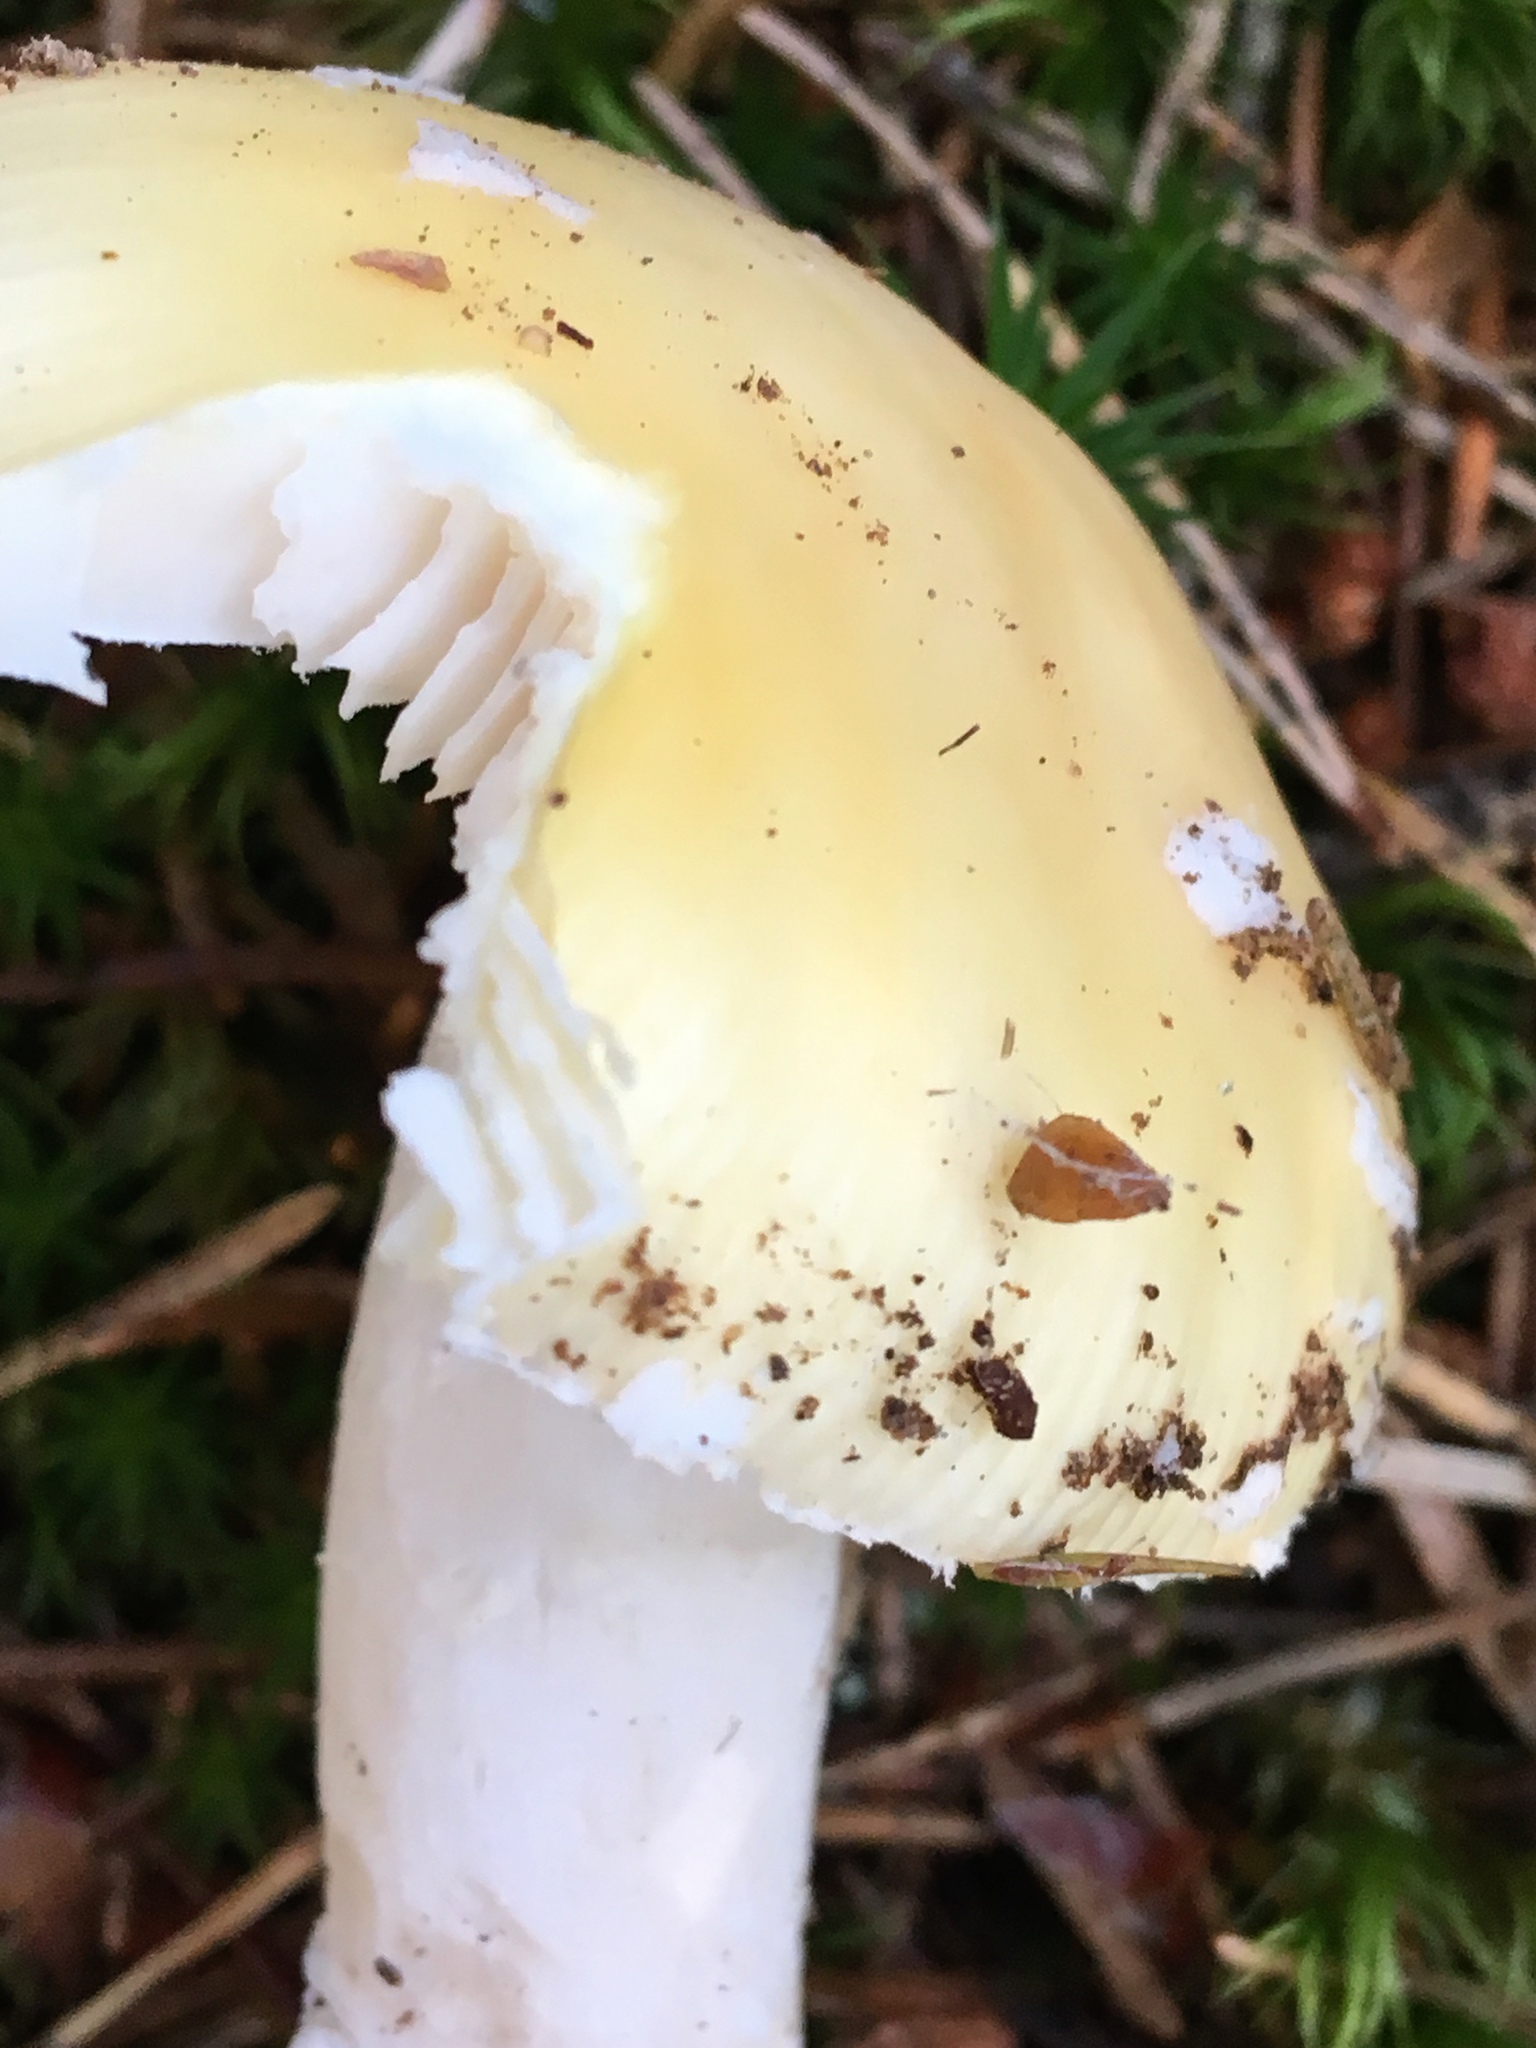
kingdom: Fungi
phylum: Basidiomycota
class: Agaricomycetes
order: Agaricales
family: Amanitaceae
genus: Amanita
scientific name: Amanita gemmata
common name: Jewelled amanita
